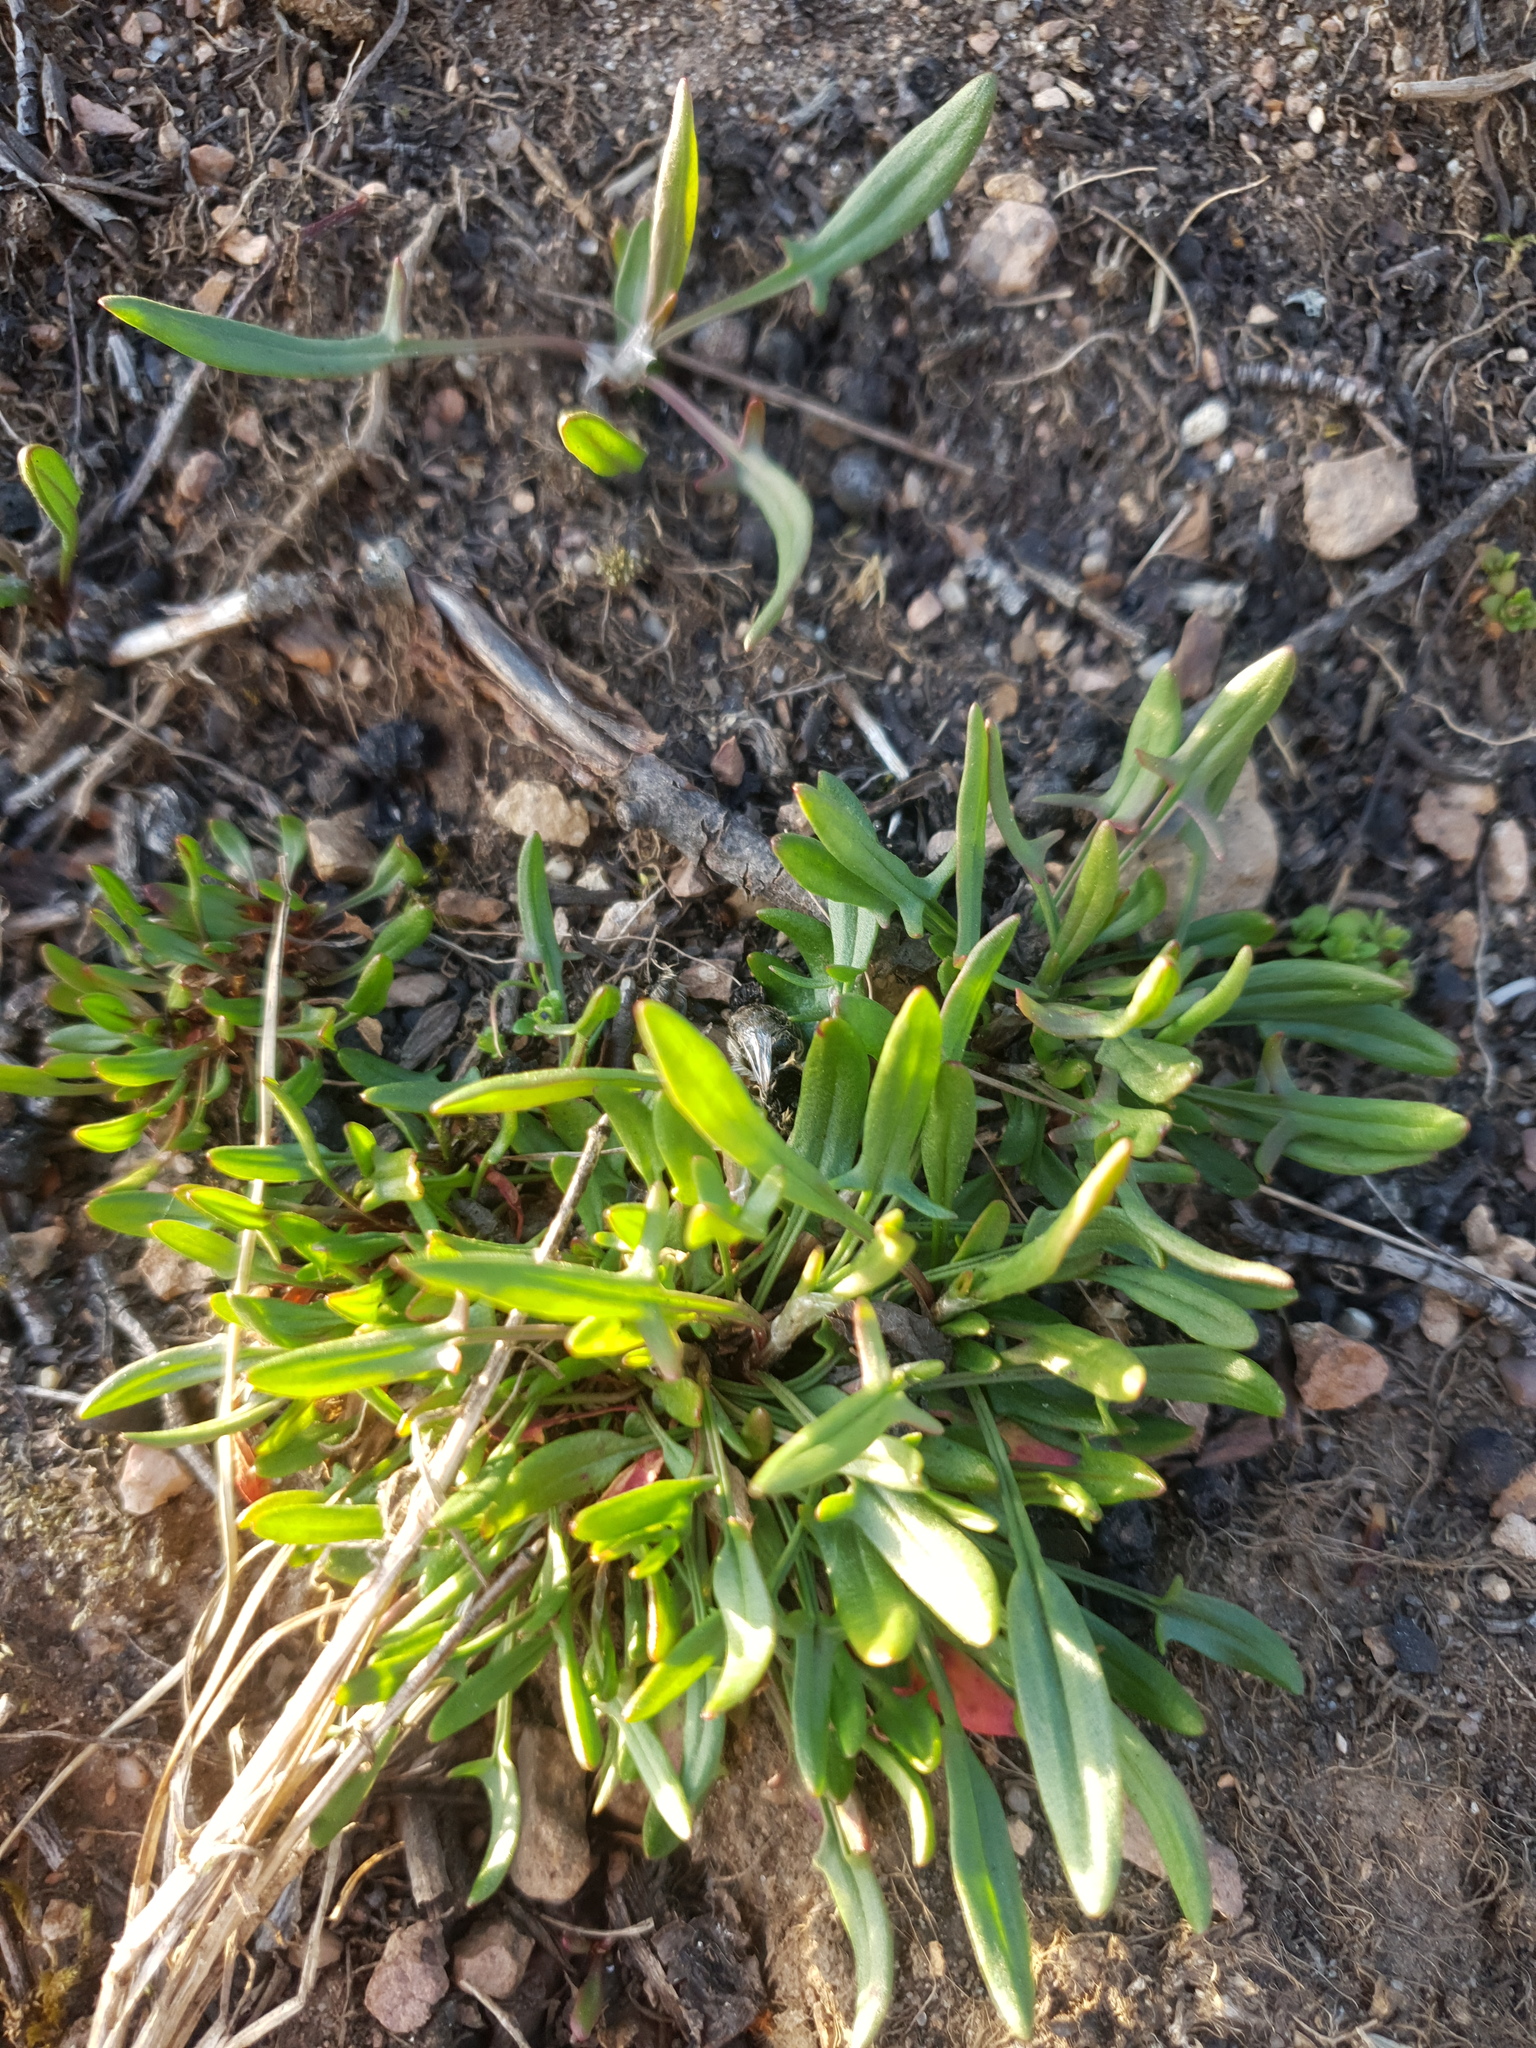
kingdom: Plantae
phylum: Tracheophyta
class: Magnoliopsida
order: Caryophyllales
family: Polygonaceae
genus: Rumex
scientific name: Rumex acetosella
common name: Common sheep sorrel
